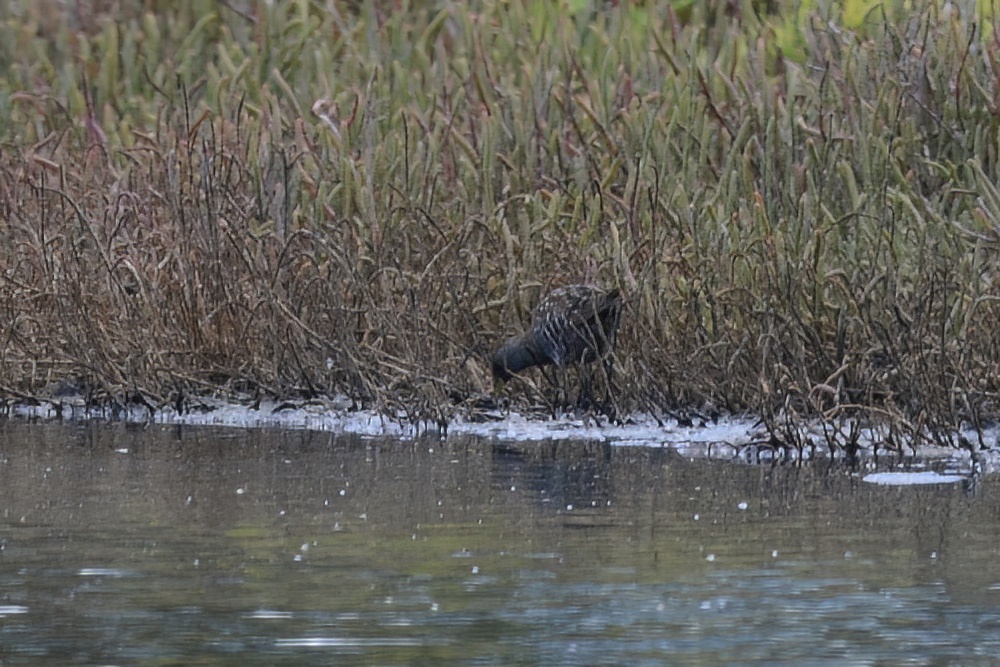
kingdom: Animalia
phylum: Chordata
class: Aves
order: Gruiformes
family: Rallidae
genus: Porzana
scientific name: Porzana fluminea
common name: Australian crake
